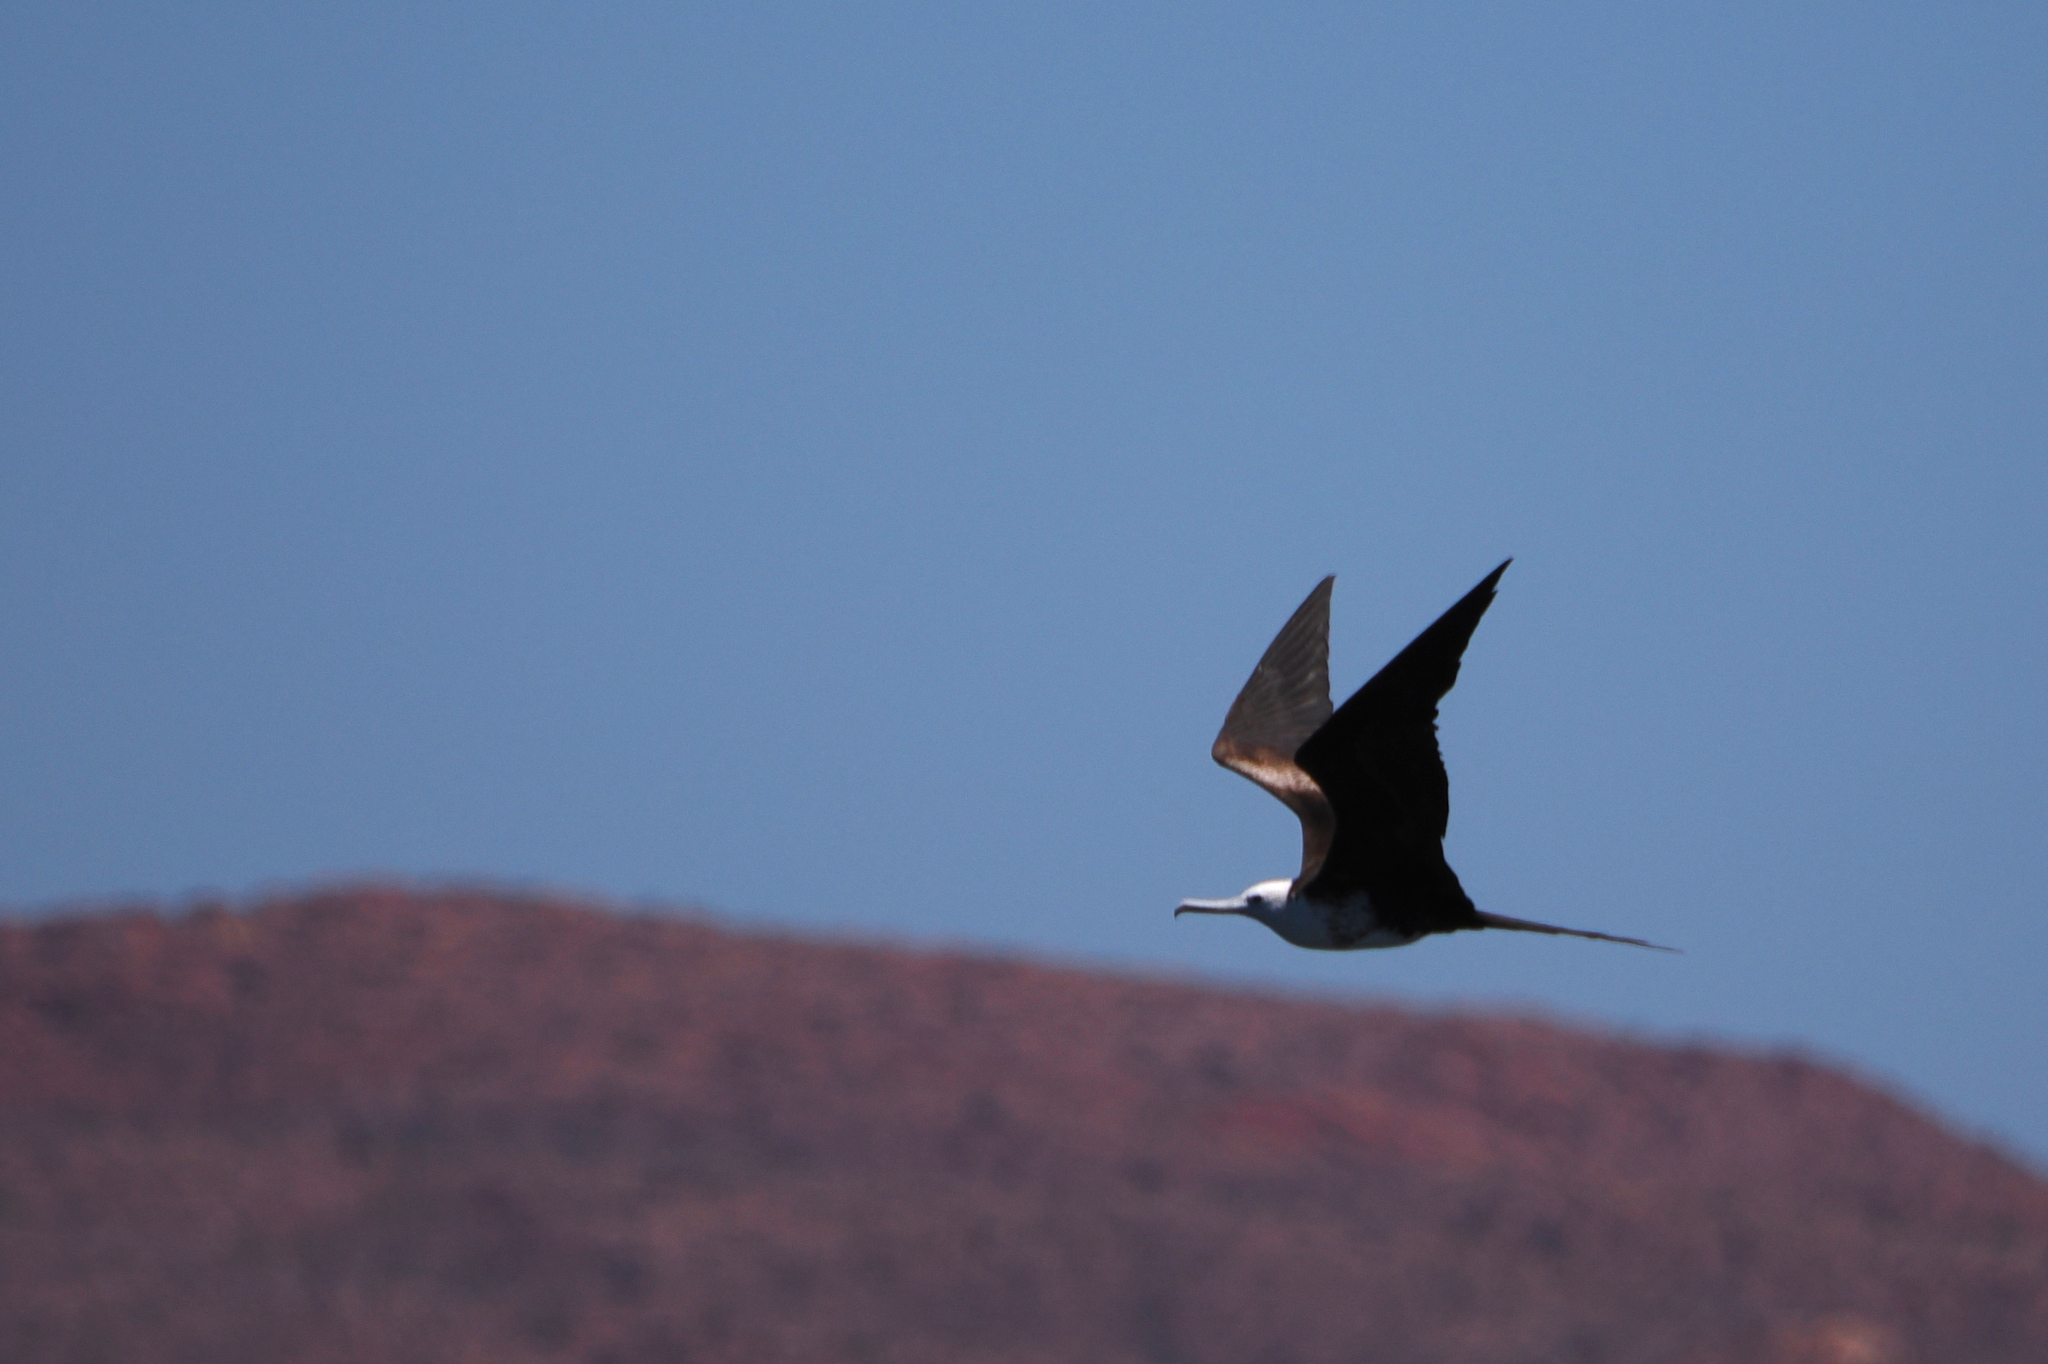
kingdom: Animalia
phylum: Chordata
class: Aves
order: Suliformes
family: Fregatidae
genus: Fregata
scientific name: Fregata magnificens
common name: Magnificent frigatebird
